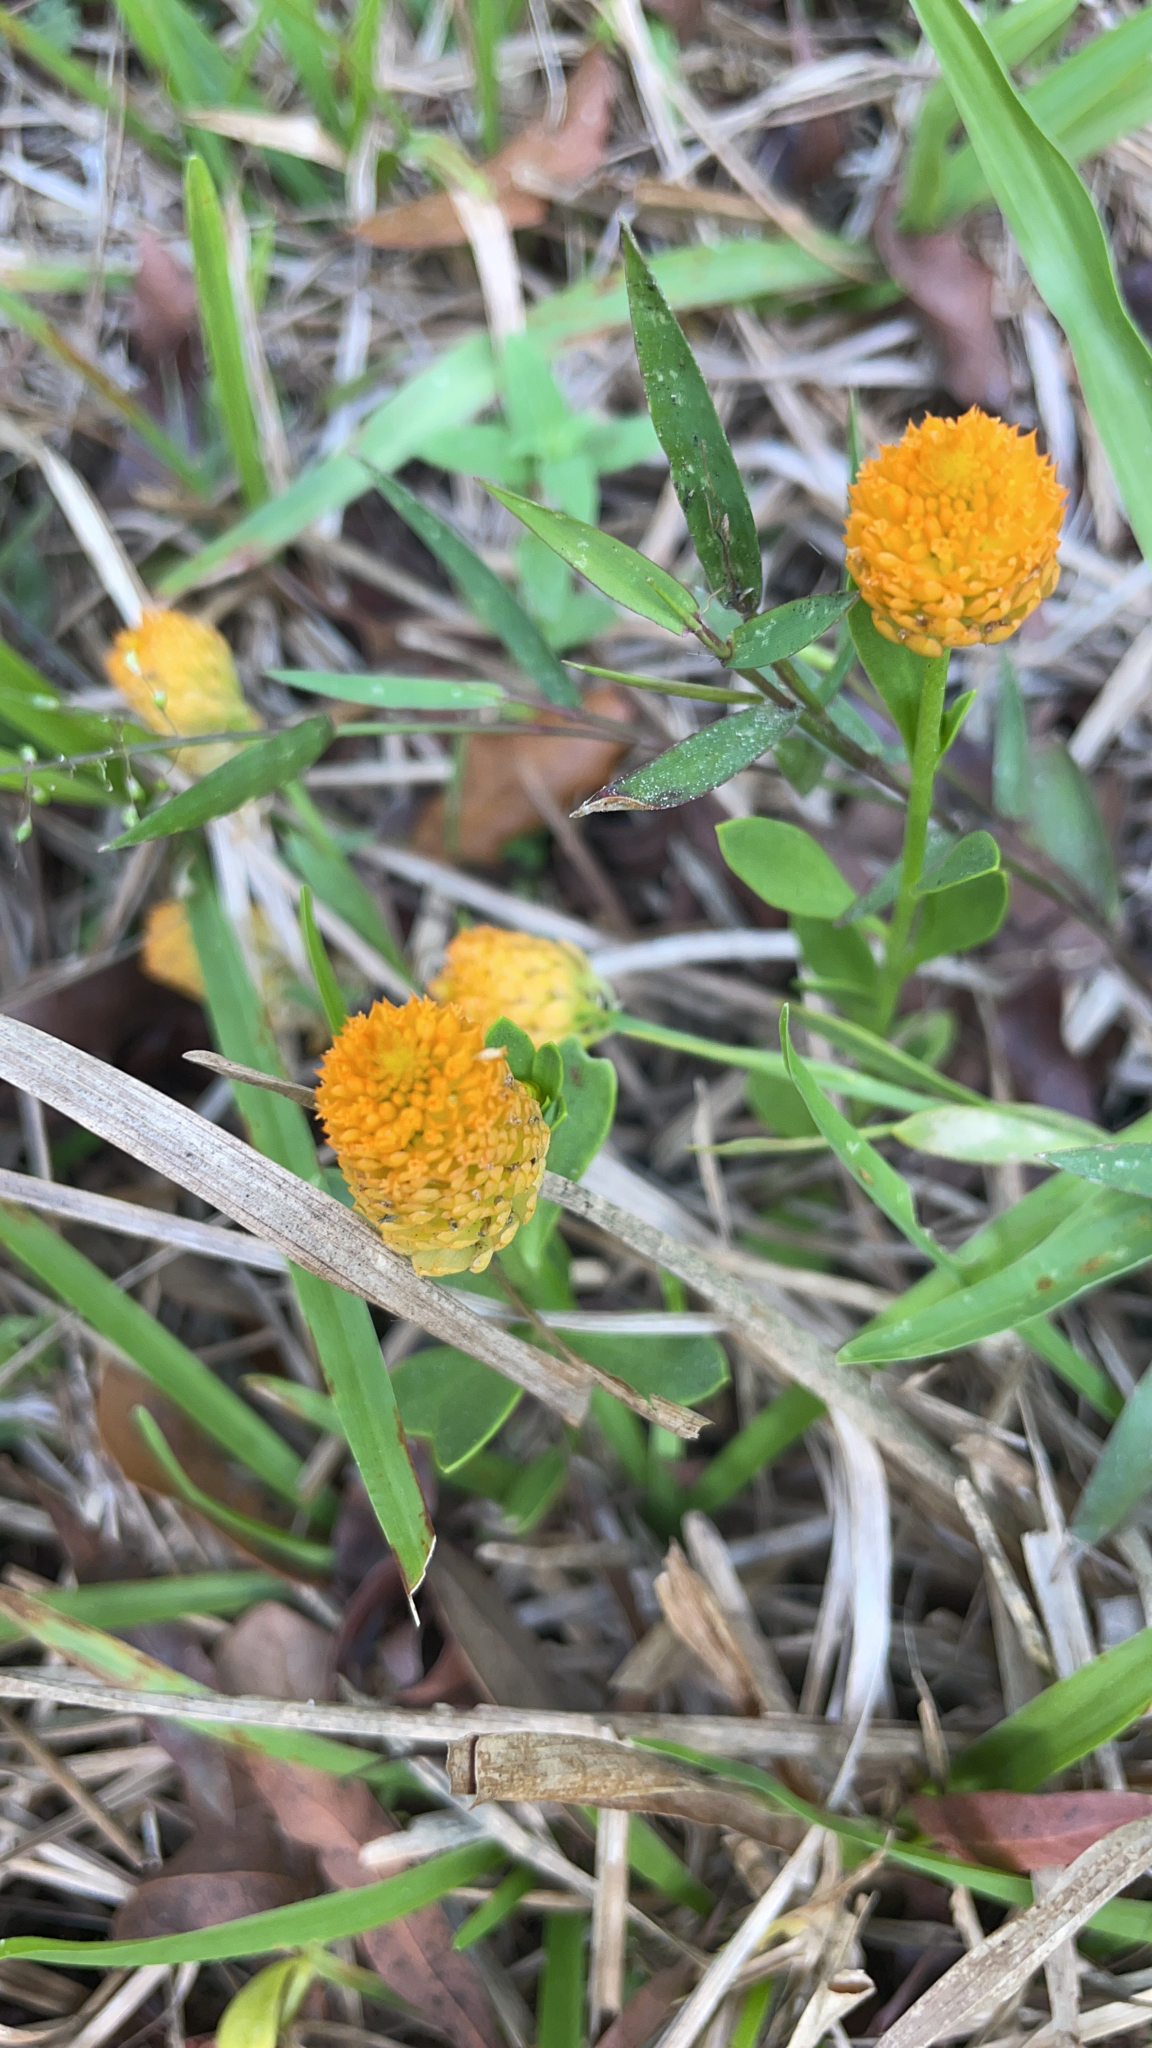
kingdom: Plantae
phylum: Tracheophyta
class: Magnoliopsida
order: Fabales
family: Polygalaceae
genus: Polygala
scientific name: Polygala lutea
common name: Orange milkwort
